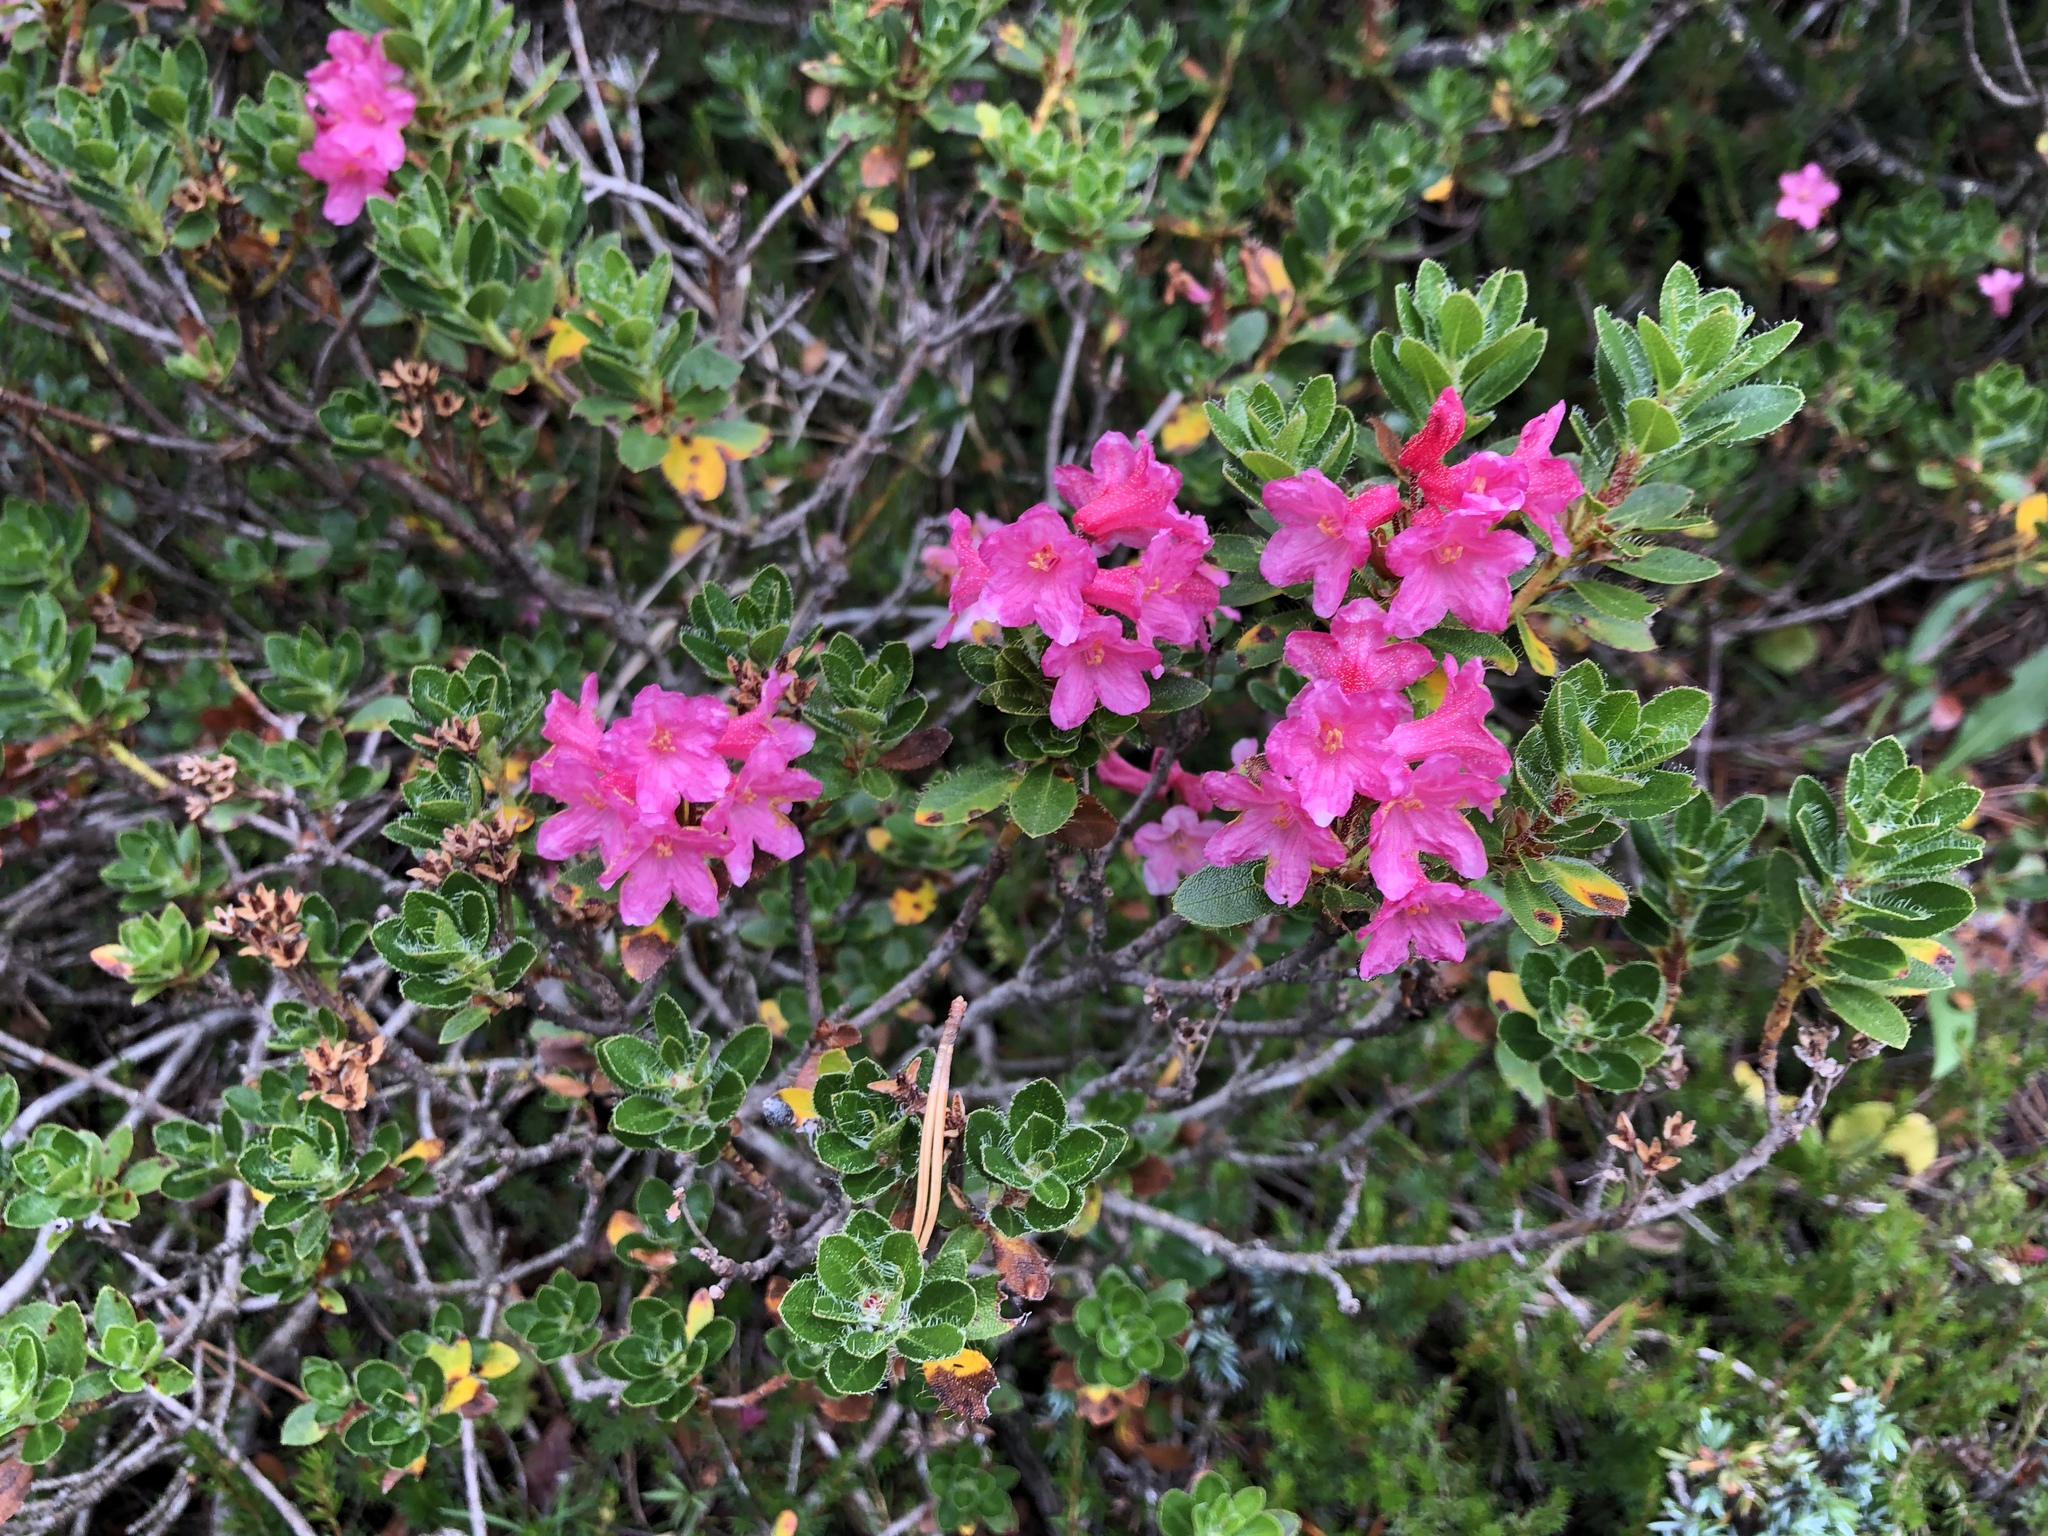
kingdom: Plantae
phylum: Tracheophyta
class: Magnoliopsida
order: Ericales
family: Ericaceae
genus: Rhododendron
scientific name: Rhododendron hirsutum
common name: Hairy alpenrose
